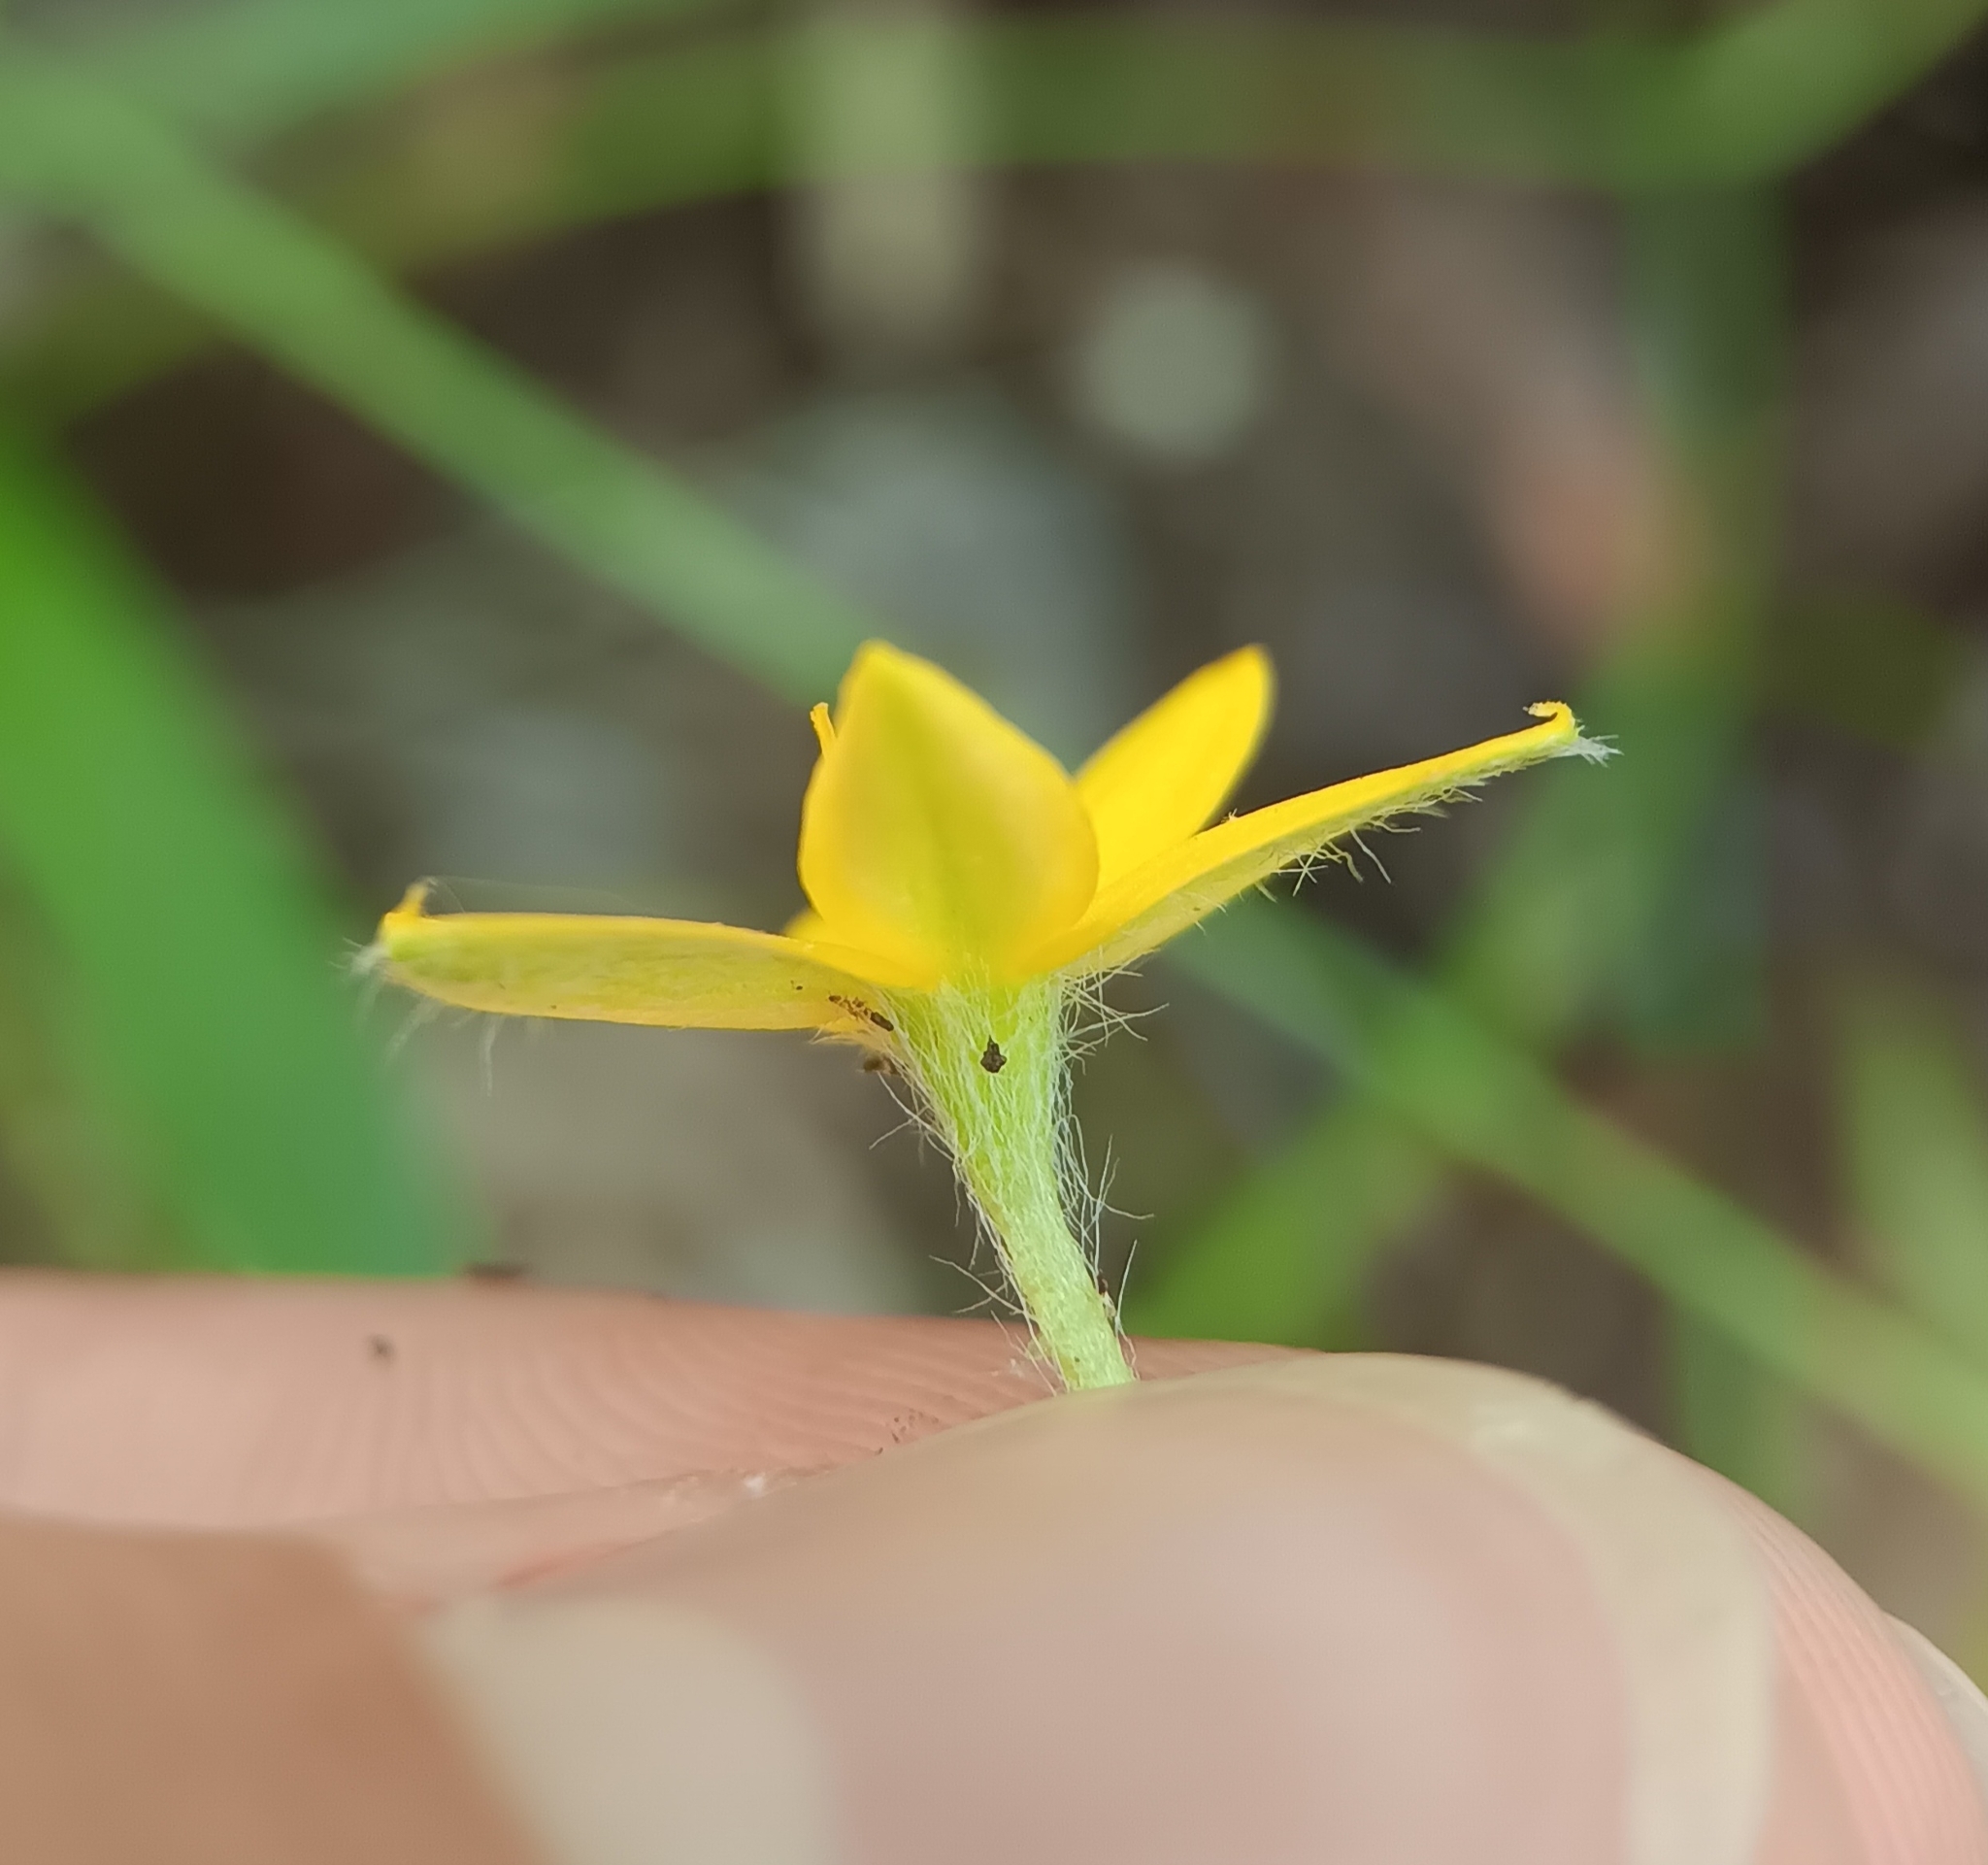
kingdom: Plantae
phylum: Tracheophyta
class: Liliopsida
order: Asparagales
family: Hypoxidaceae
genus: Hypoxis
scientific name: Hypoxis hirsuta
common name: Common goldstar
